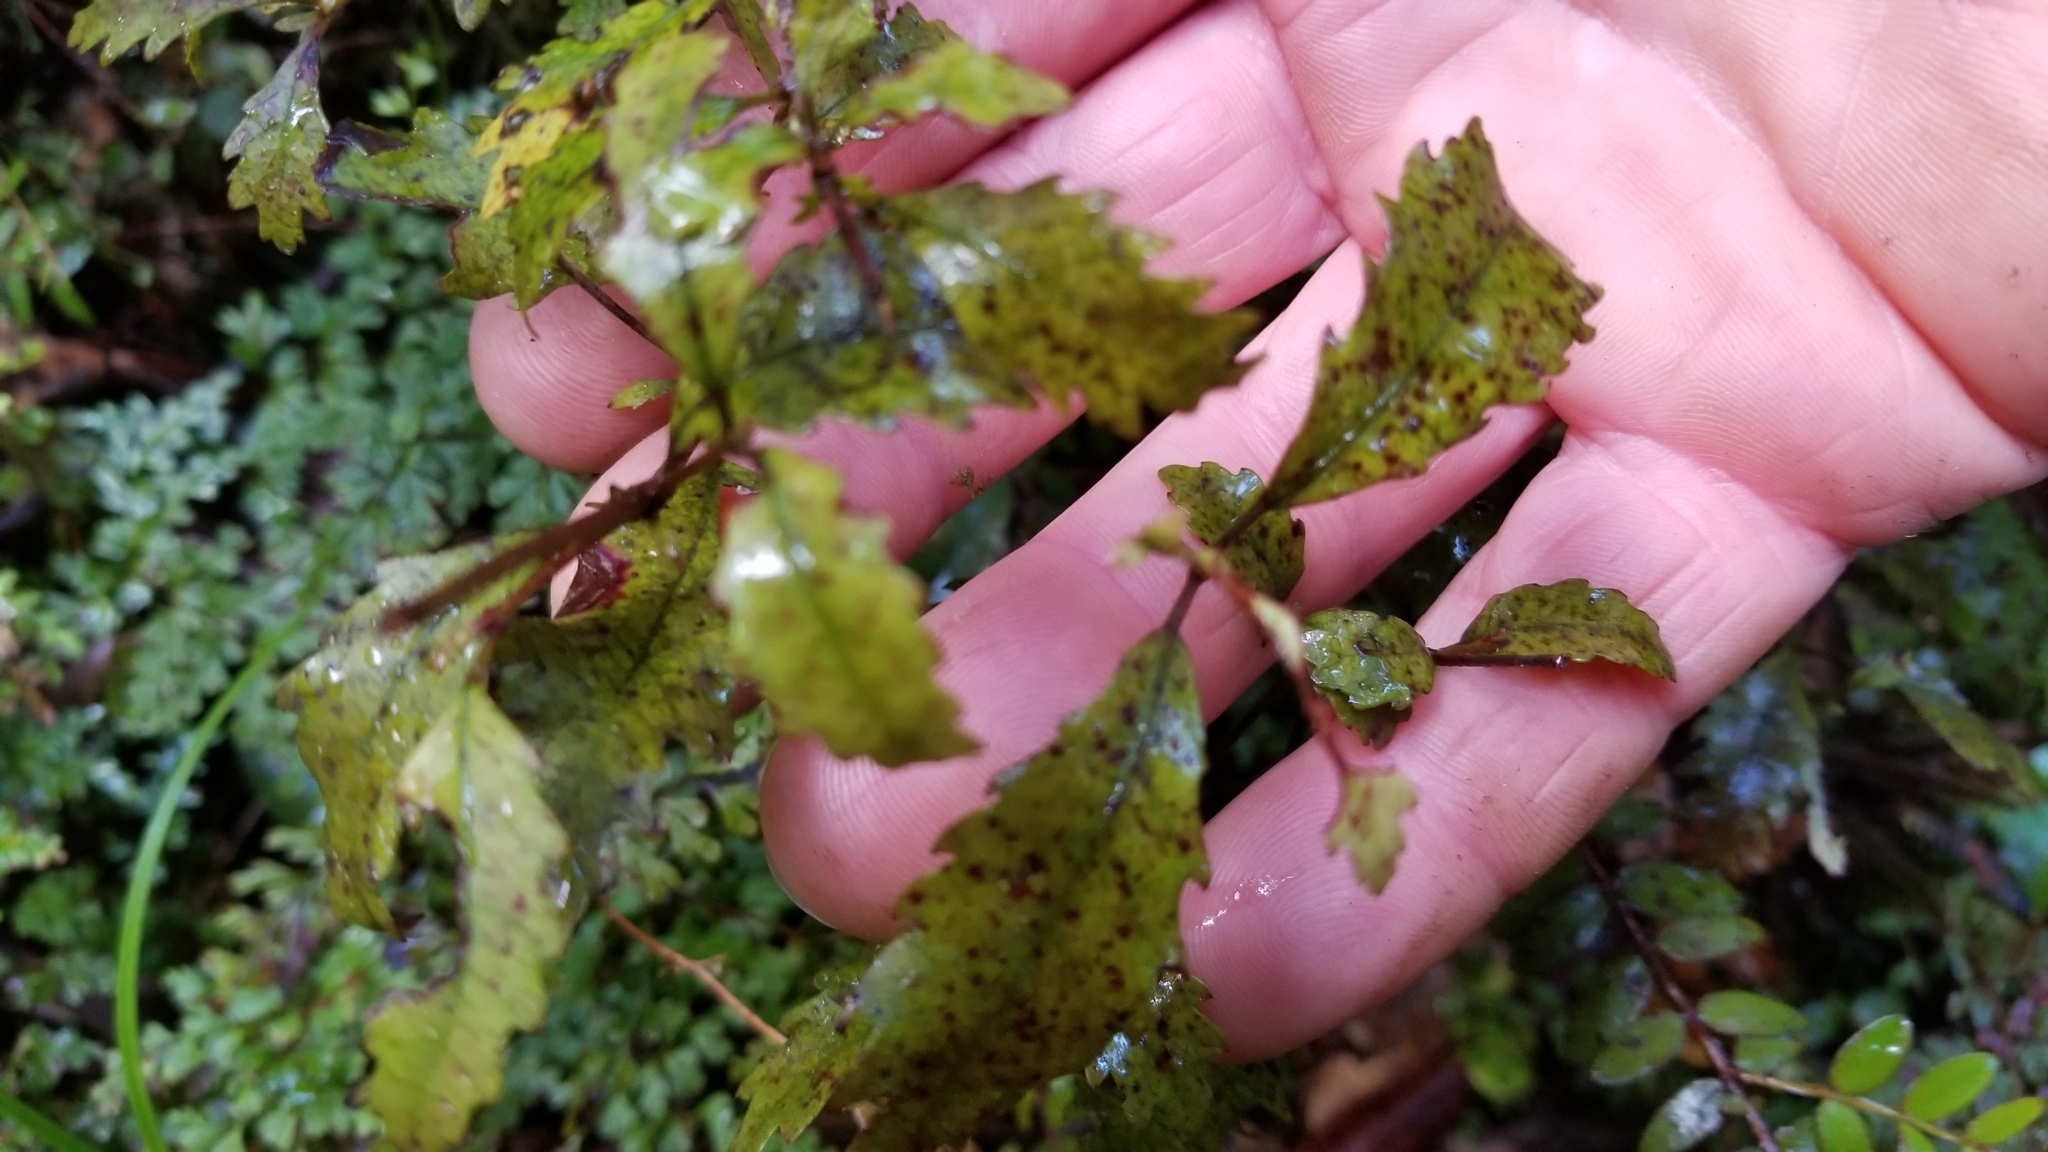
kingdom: Plantae
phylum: Tracheophyta
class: Magnoliopsida
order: Oxalidales
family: Cunoniaceae
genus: Pterophylla
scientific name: Pterophylla racemosa
